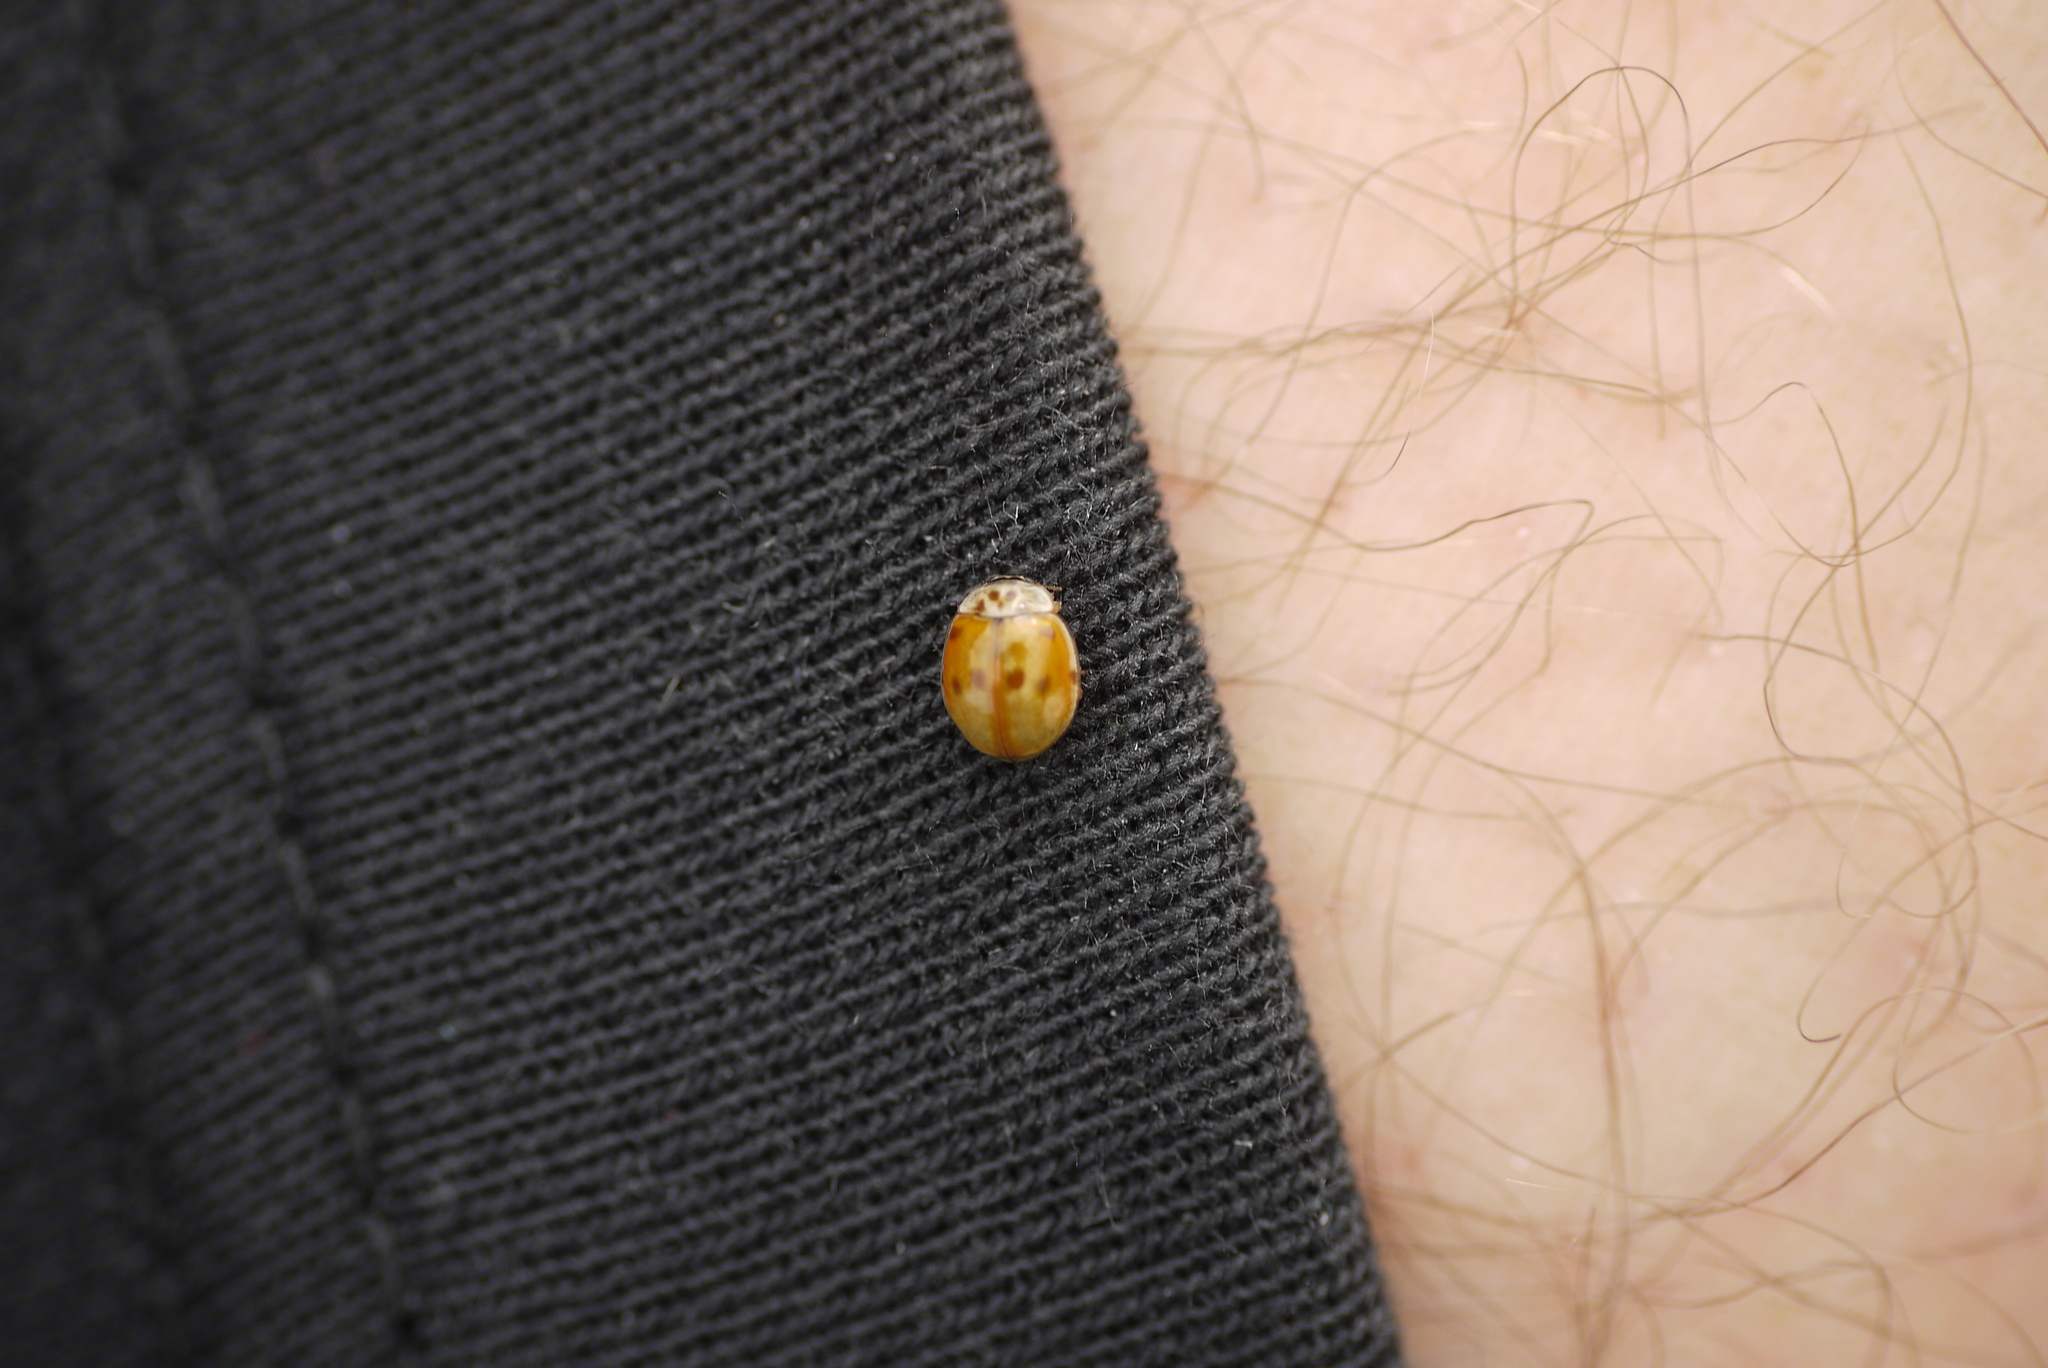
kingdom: Animalia
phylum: Arthropoda
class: Insecta
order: Coleoptera
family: Coccinellidae
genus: Adalia
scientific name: Adalia decempunctata
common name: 10-spot ladybird
